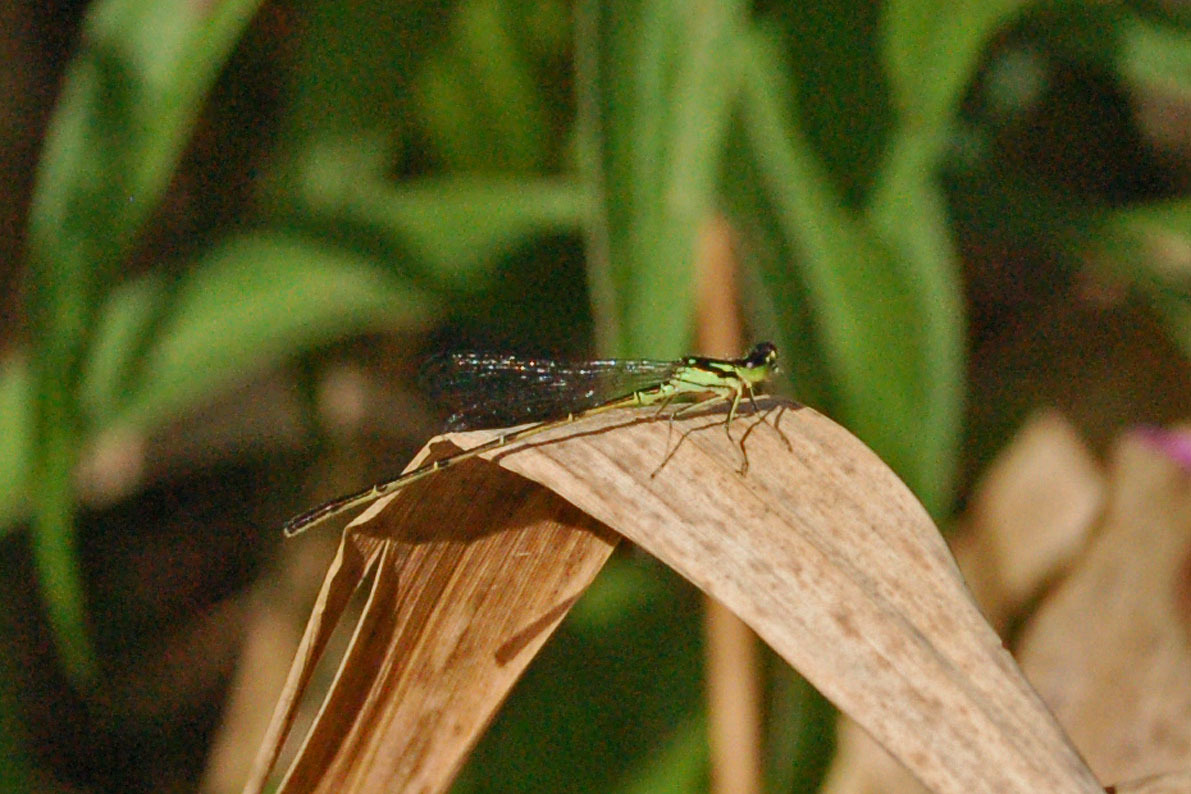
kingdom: Animalia
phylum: Arthropoda
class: Insecta
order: Odonata
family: Coenagrionidae
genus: Ischnura
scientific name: Ischnura posita
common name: Fragile forktail
